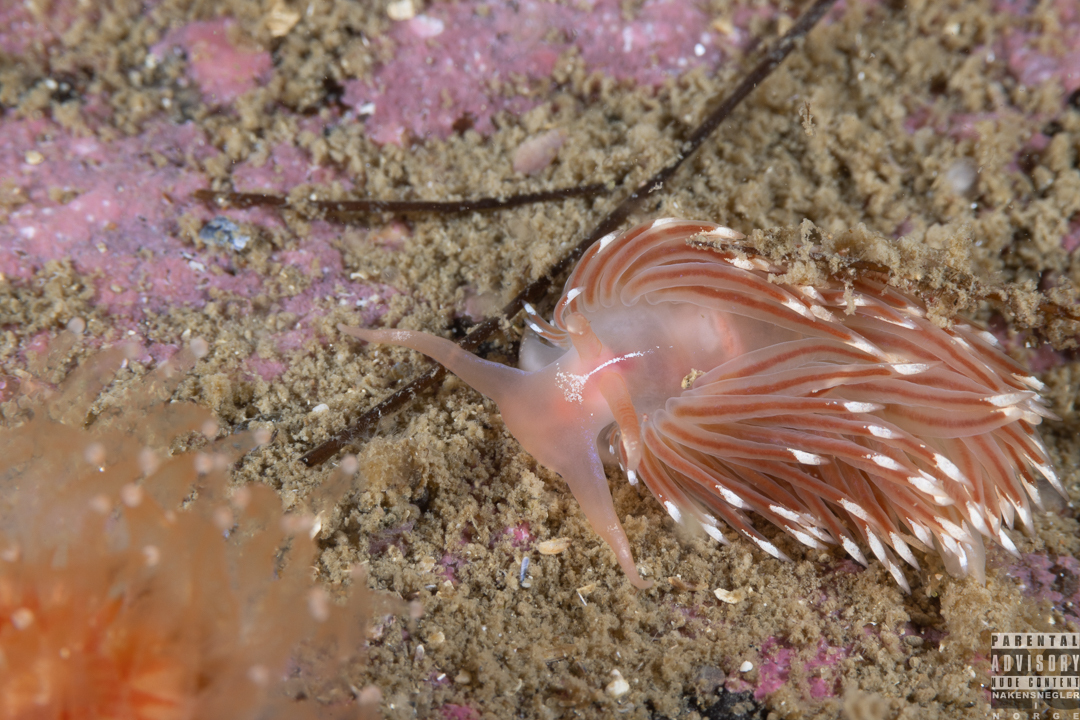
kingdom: Animalia
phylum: Mollusca
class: Gastropoda
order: Nudibranchia
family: Facelinidae
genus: Facelina
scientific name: Facelina bostoniensis
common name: Boston facelina
